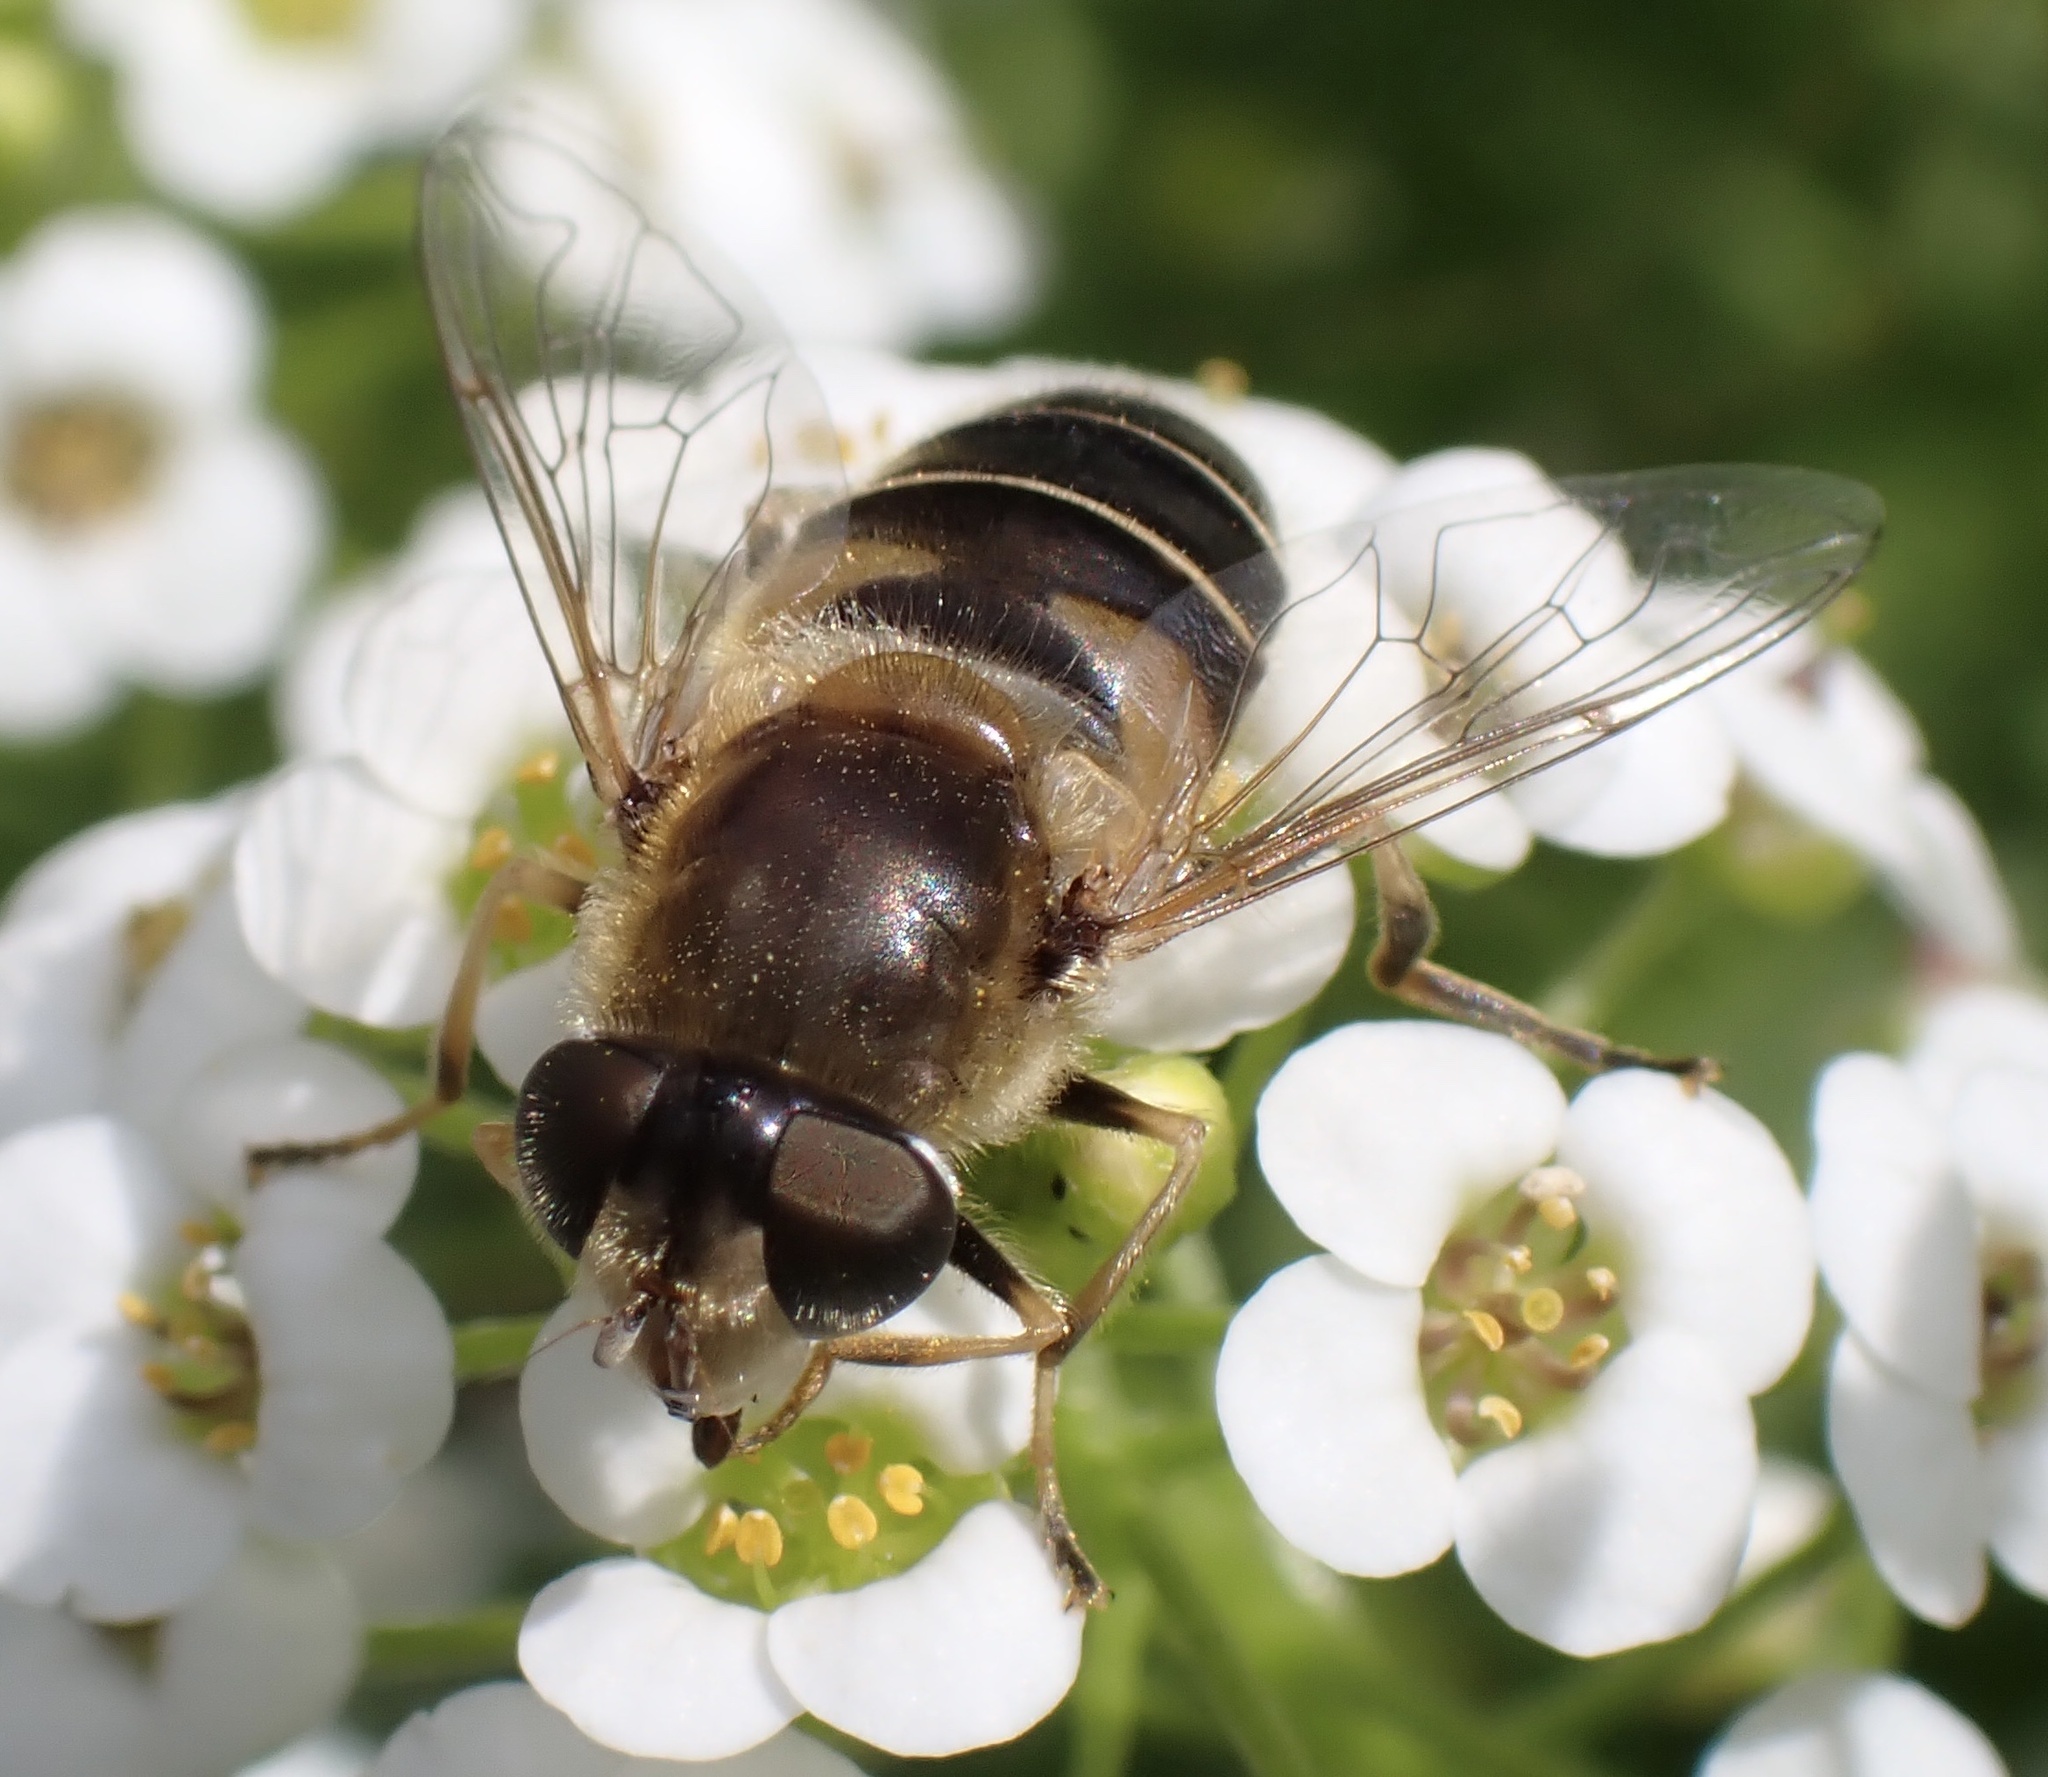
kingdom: Animalia
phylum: Arthropoda
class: Insecta
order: Diptera
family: Syrphidae
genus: Eristalis
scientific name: Eristalis nemorum
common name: Orange-spined drone fly
